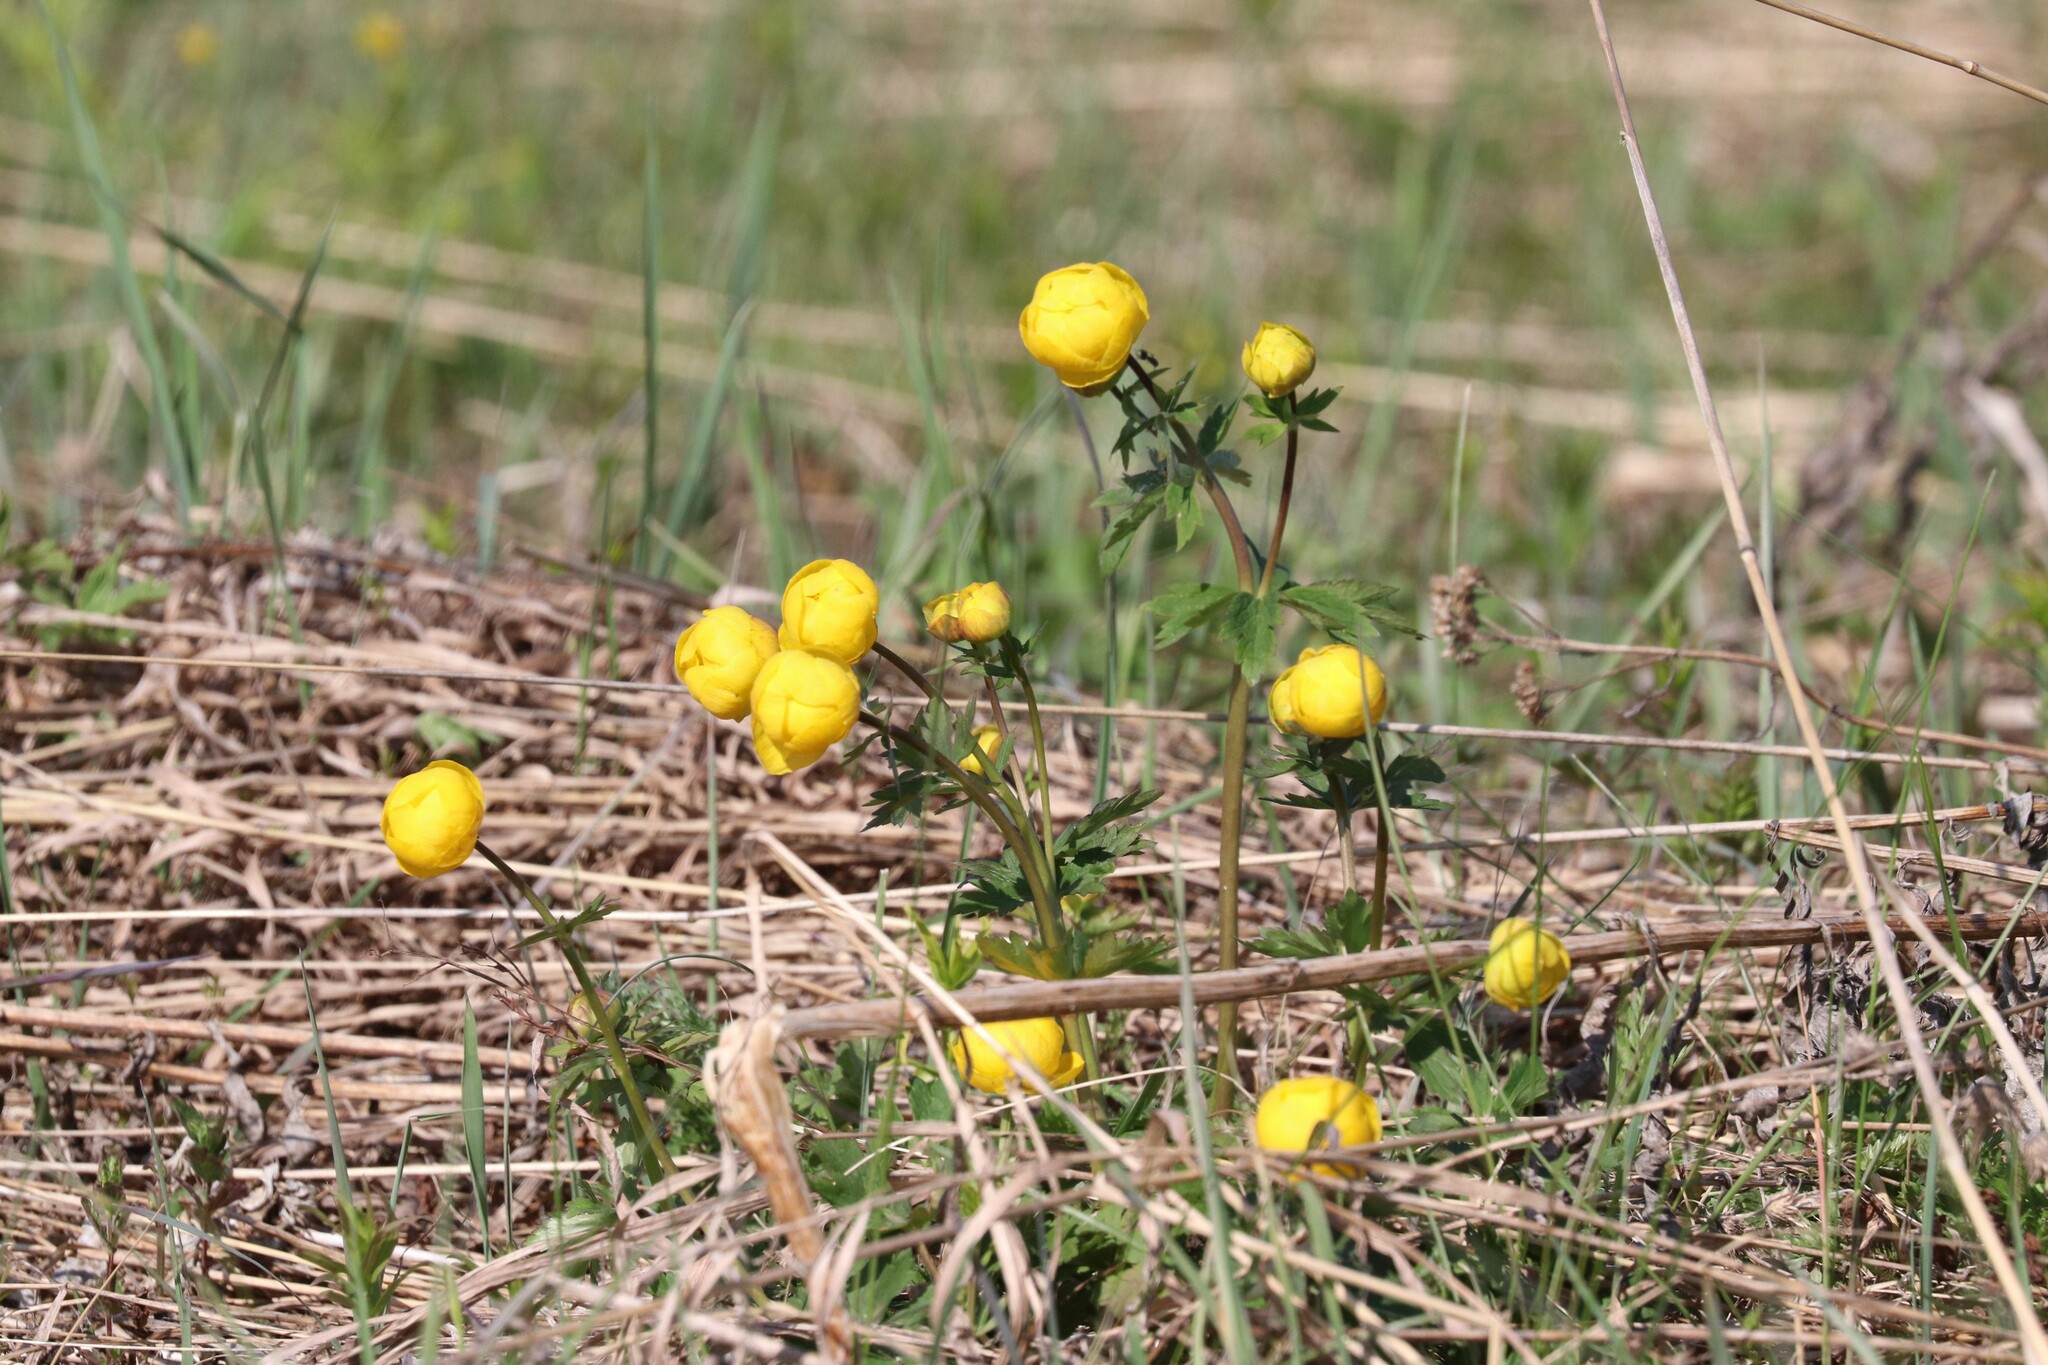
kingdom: Plantae
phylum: Tracheophyta
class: Magnoliopsida
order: Ranunculales
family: Ranunculaceae
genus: Trollius
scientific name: Trollius europaeus
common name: European globeflower
